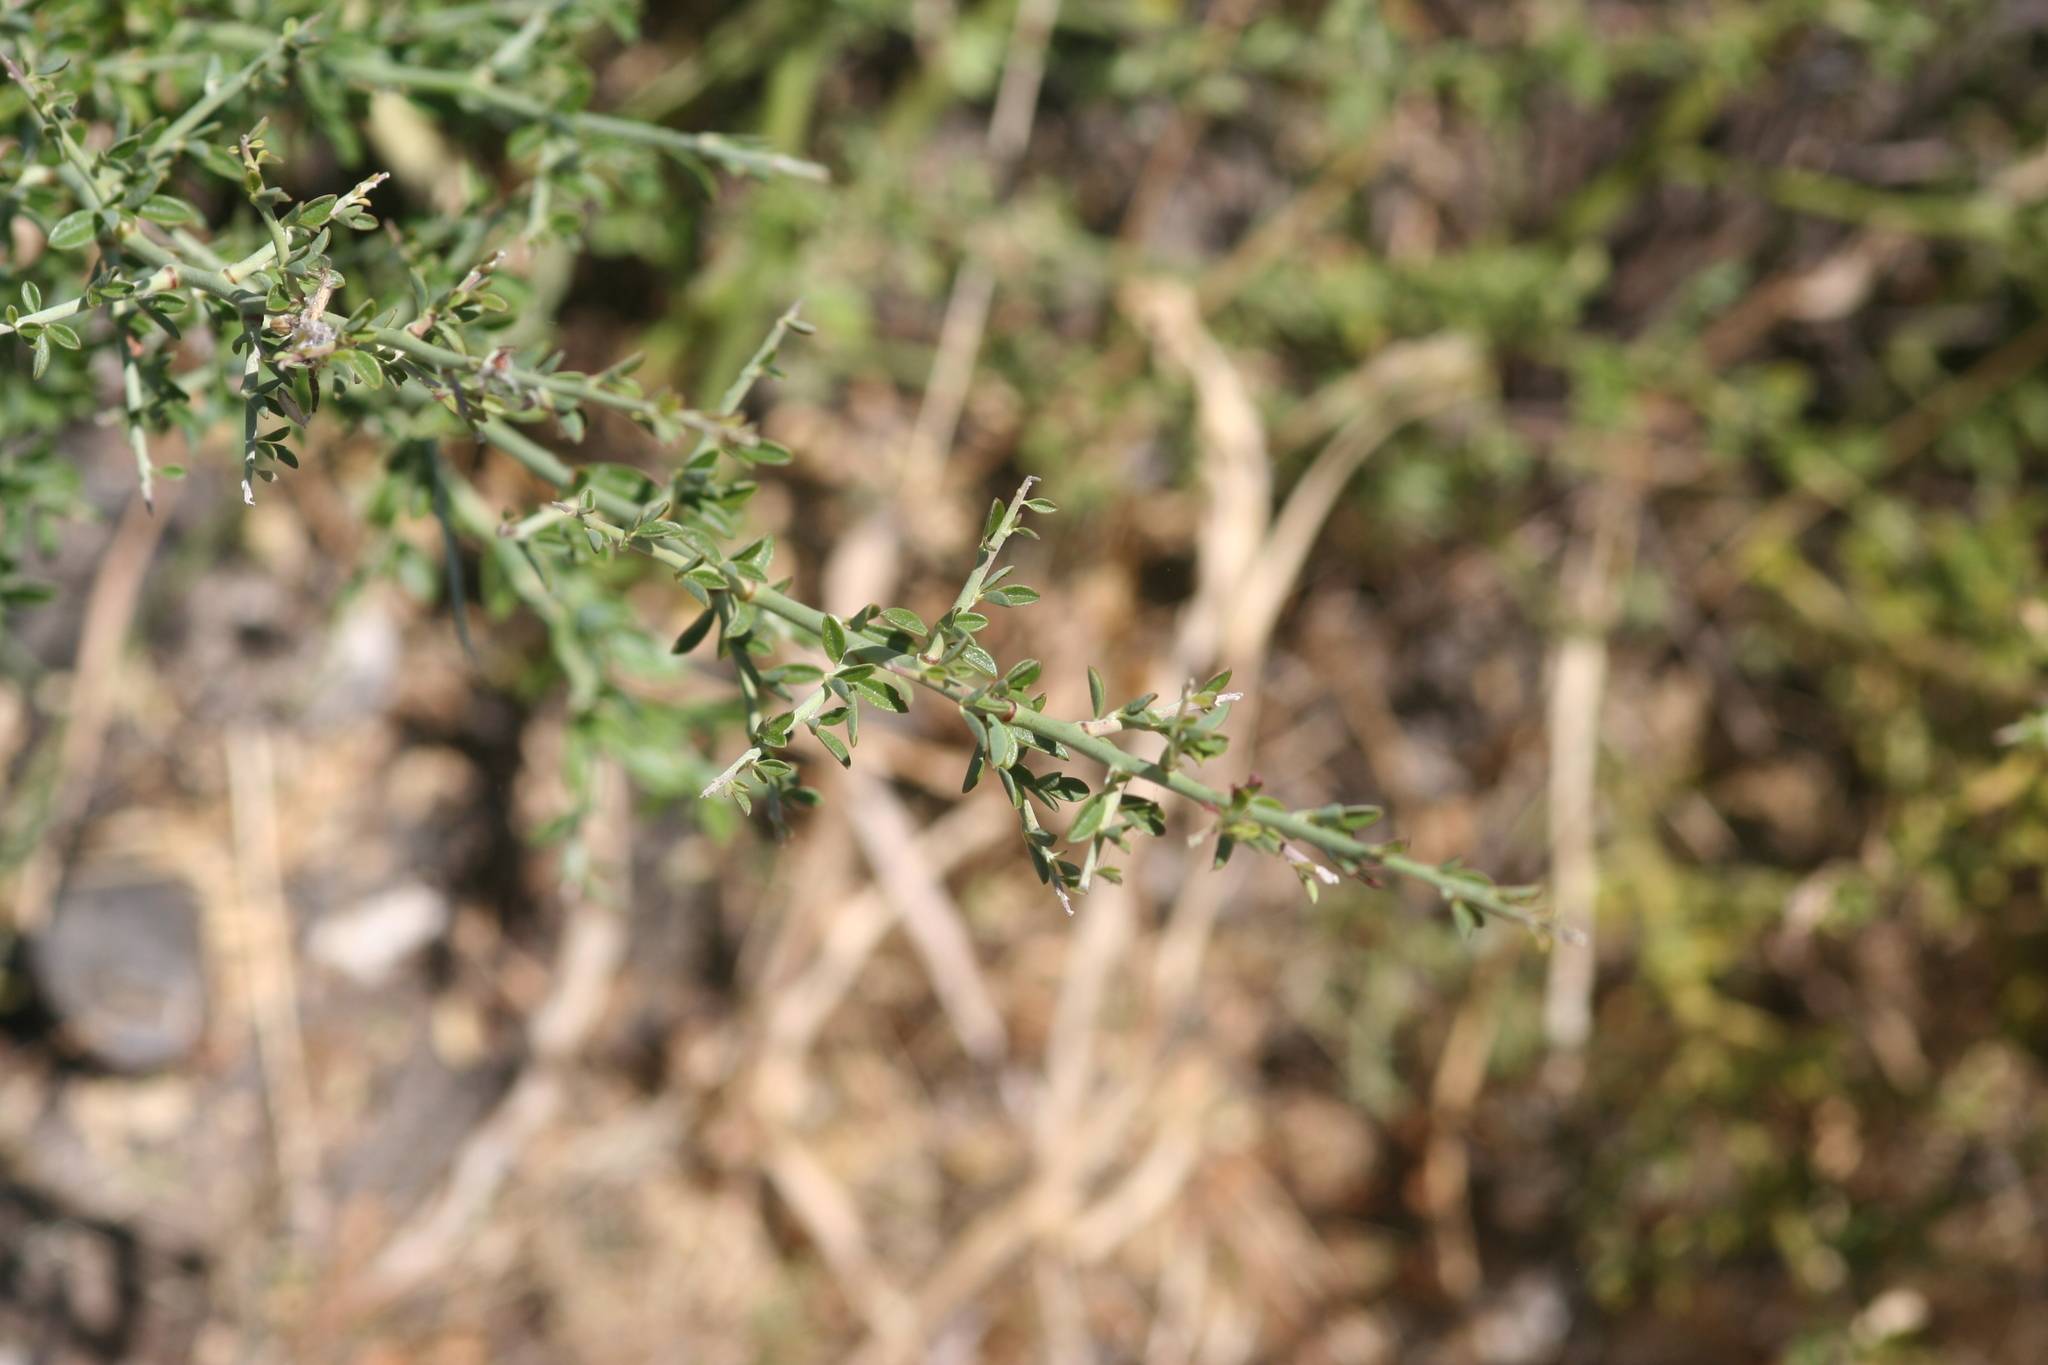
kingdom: Plantae
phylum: Tracheophyta
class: Magnoliopsida
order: Fabales
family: Fabaceae
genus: Pickeringia
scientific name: Pickeringia montana
